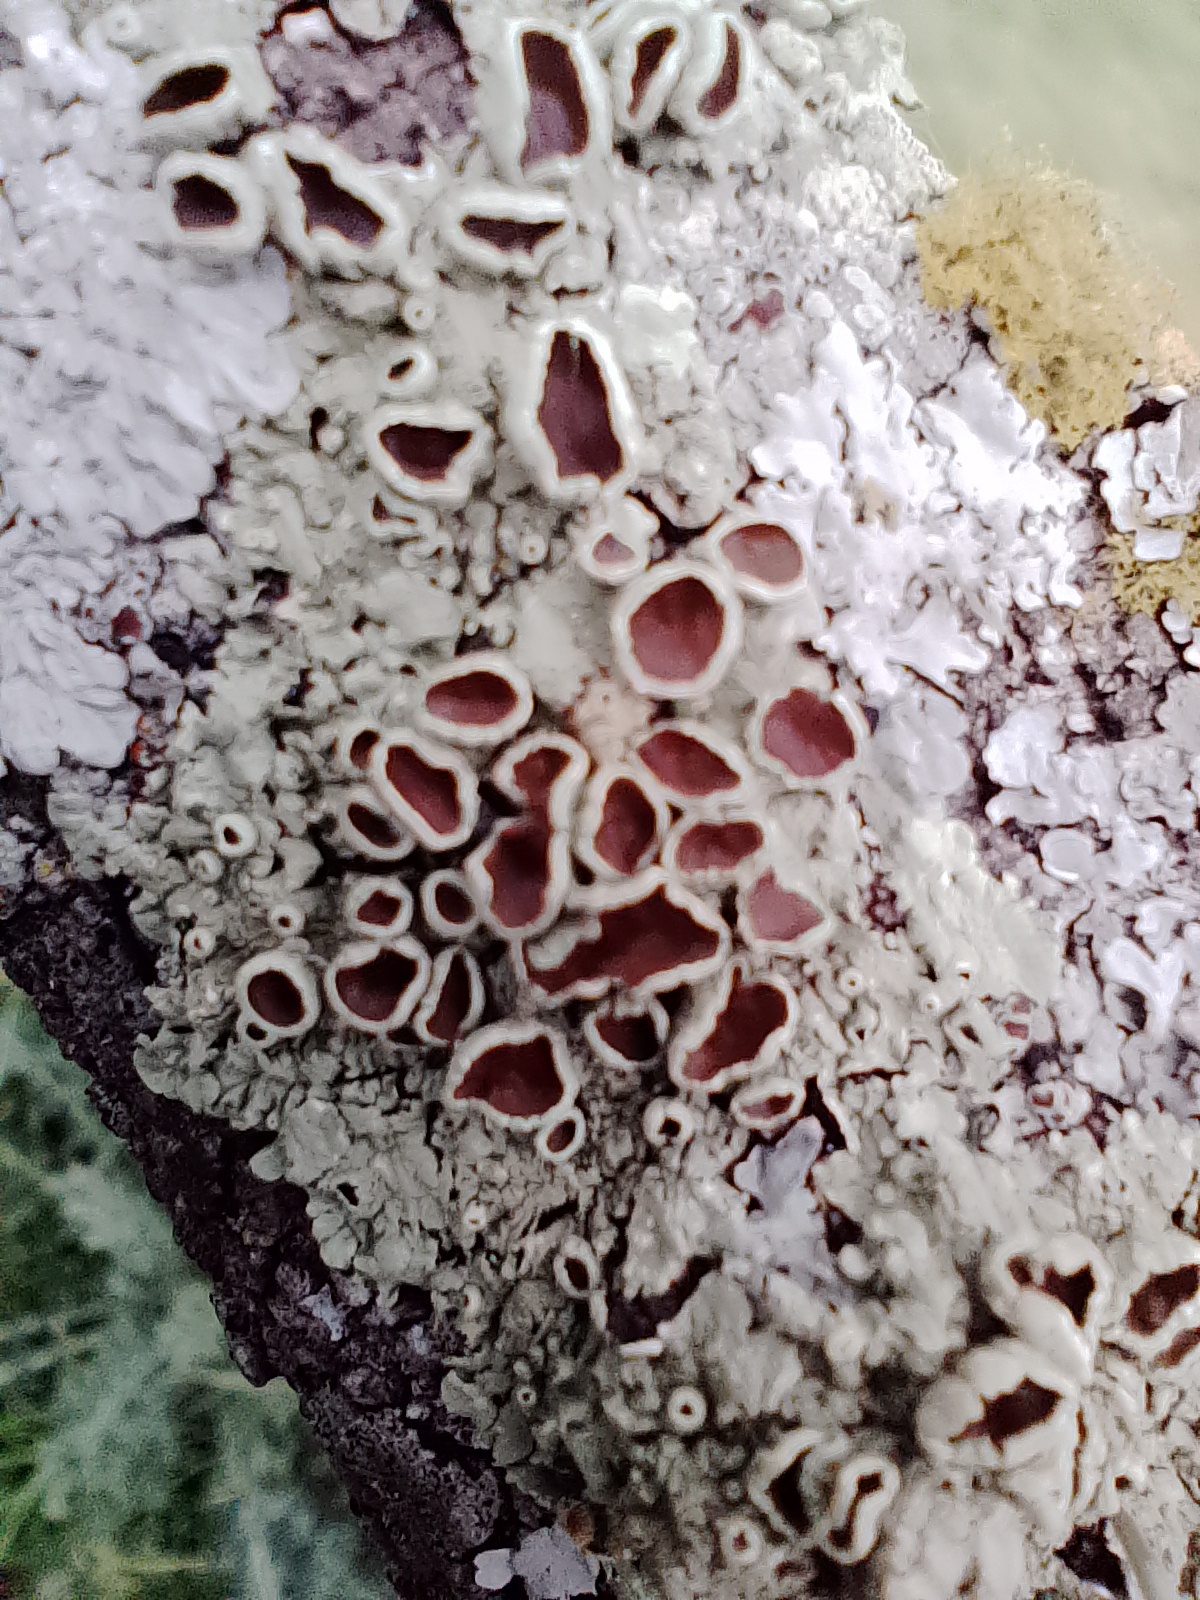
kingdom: Fungi
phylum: Ascomycota
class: Lecanoromycetes
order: Caliciales
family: Physciaceae
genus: Physcia
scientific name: Physcia stellaris
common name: Star rosette lichen
